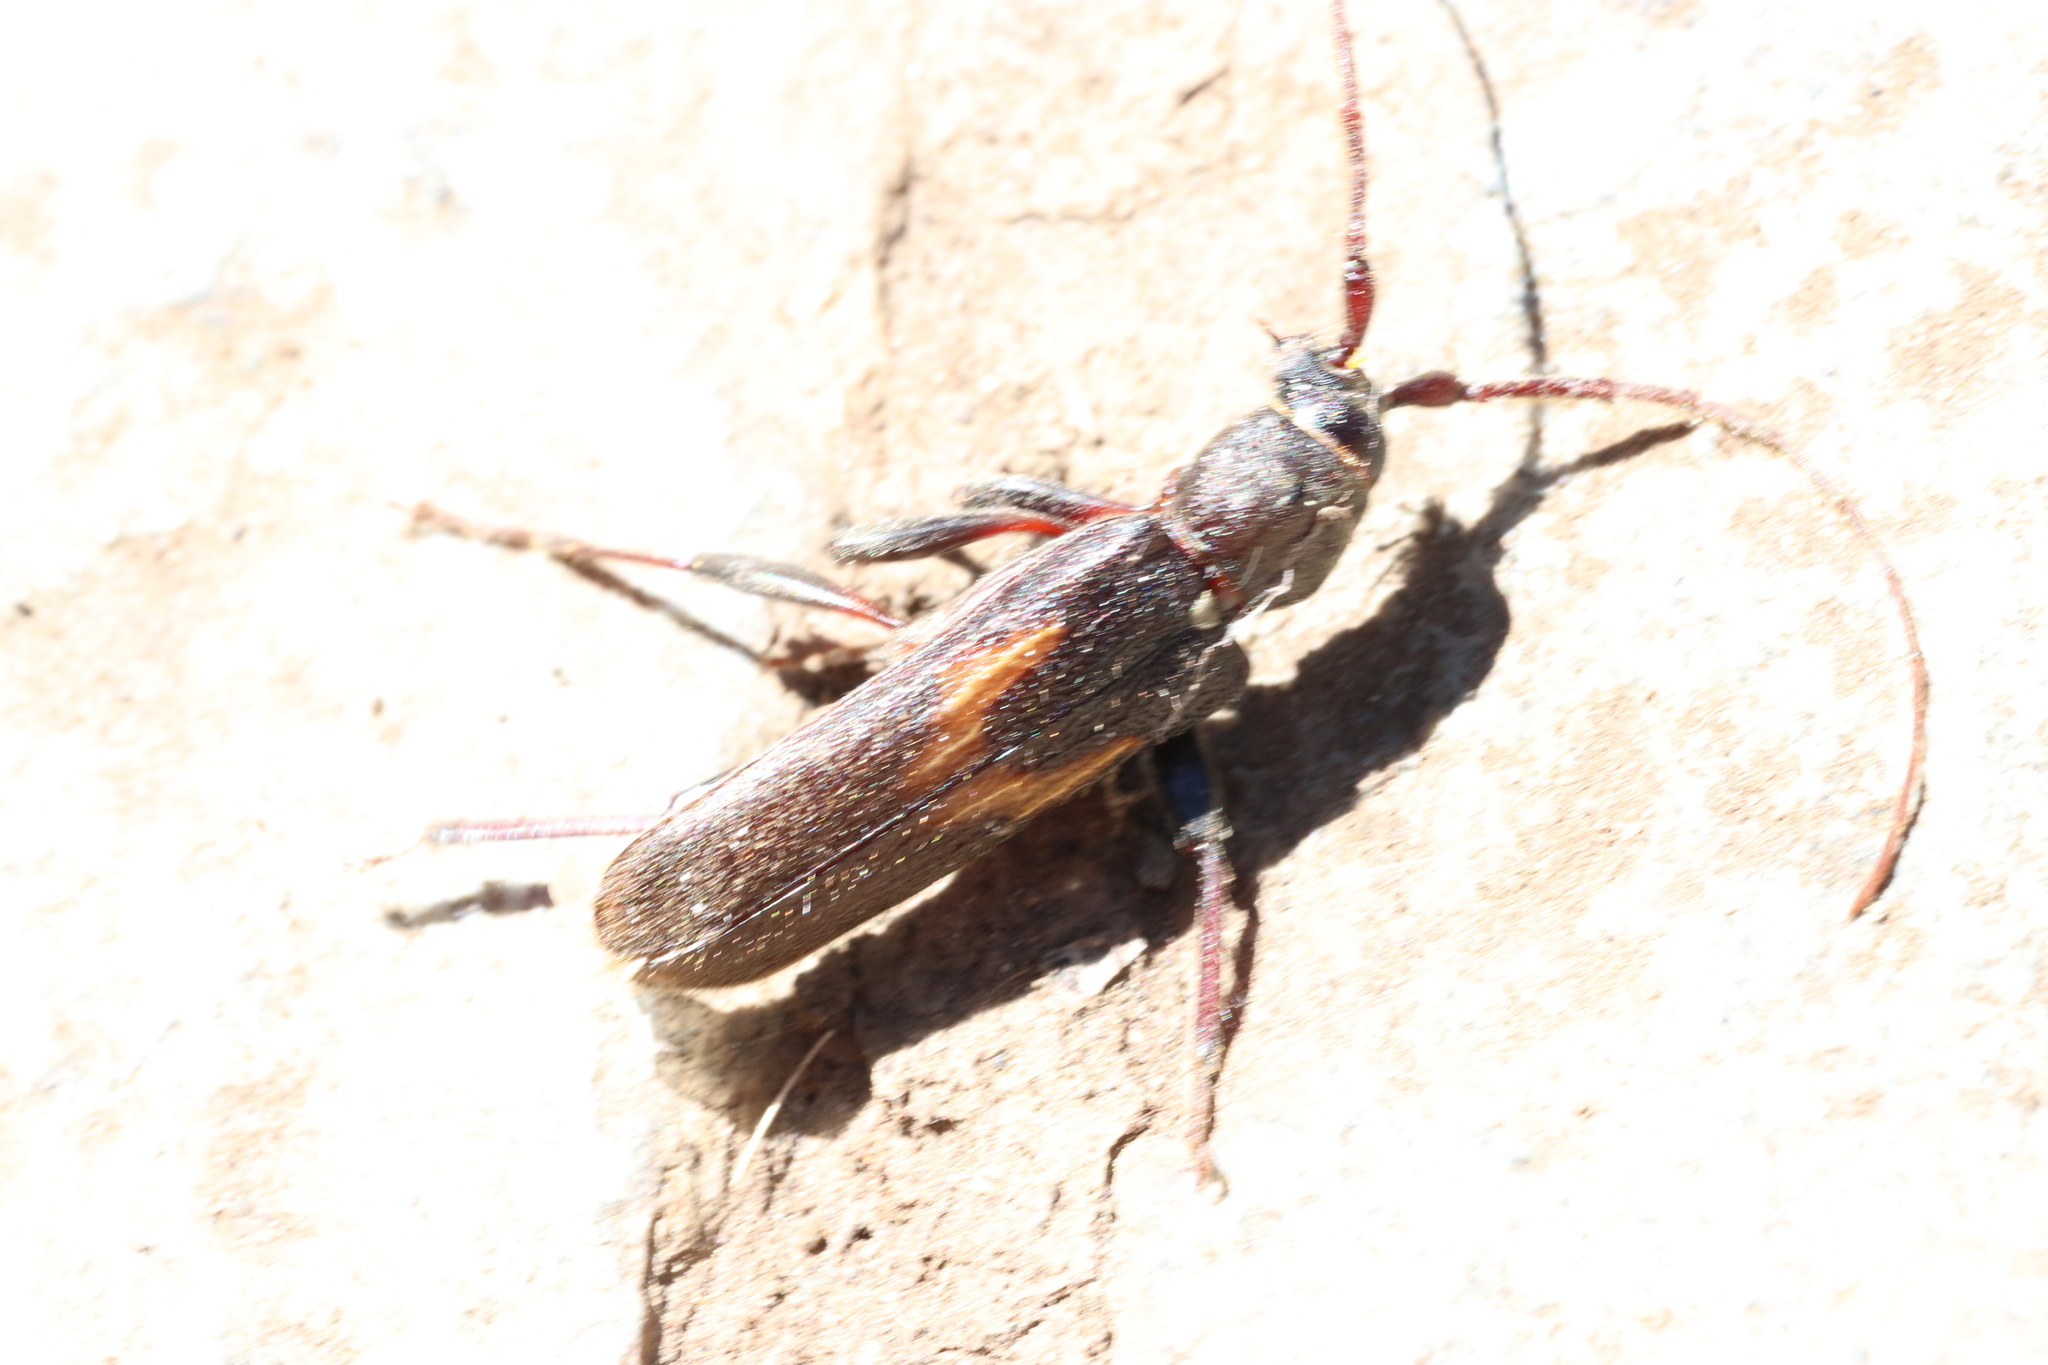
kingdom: Animalia
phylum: Arthropoda
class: Insecta
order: Coleoptera
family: Cerambycidae
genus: Grammicosum
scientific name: Grammicosum flavofasciatum
